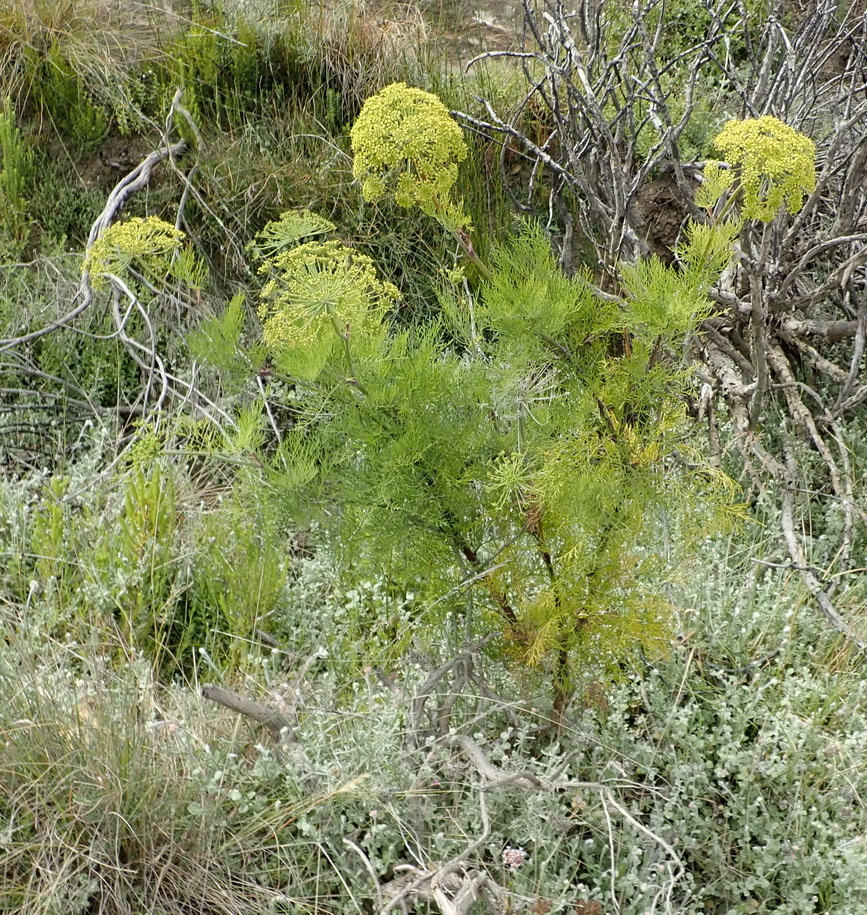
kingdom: Plantae
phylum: Tracheophyta
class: Magnoliopsida
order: Apiales
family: Apiaceae
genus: Notobubon
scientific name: Notobubon tenuifolium
